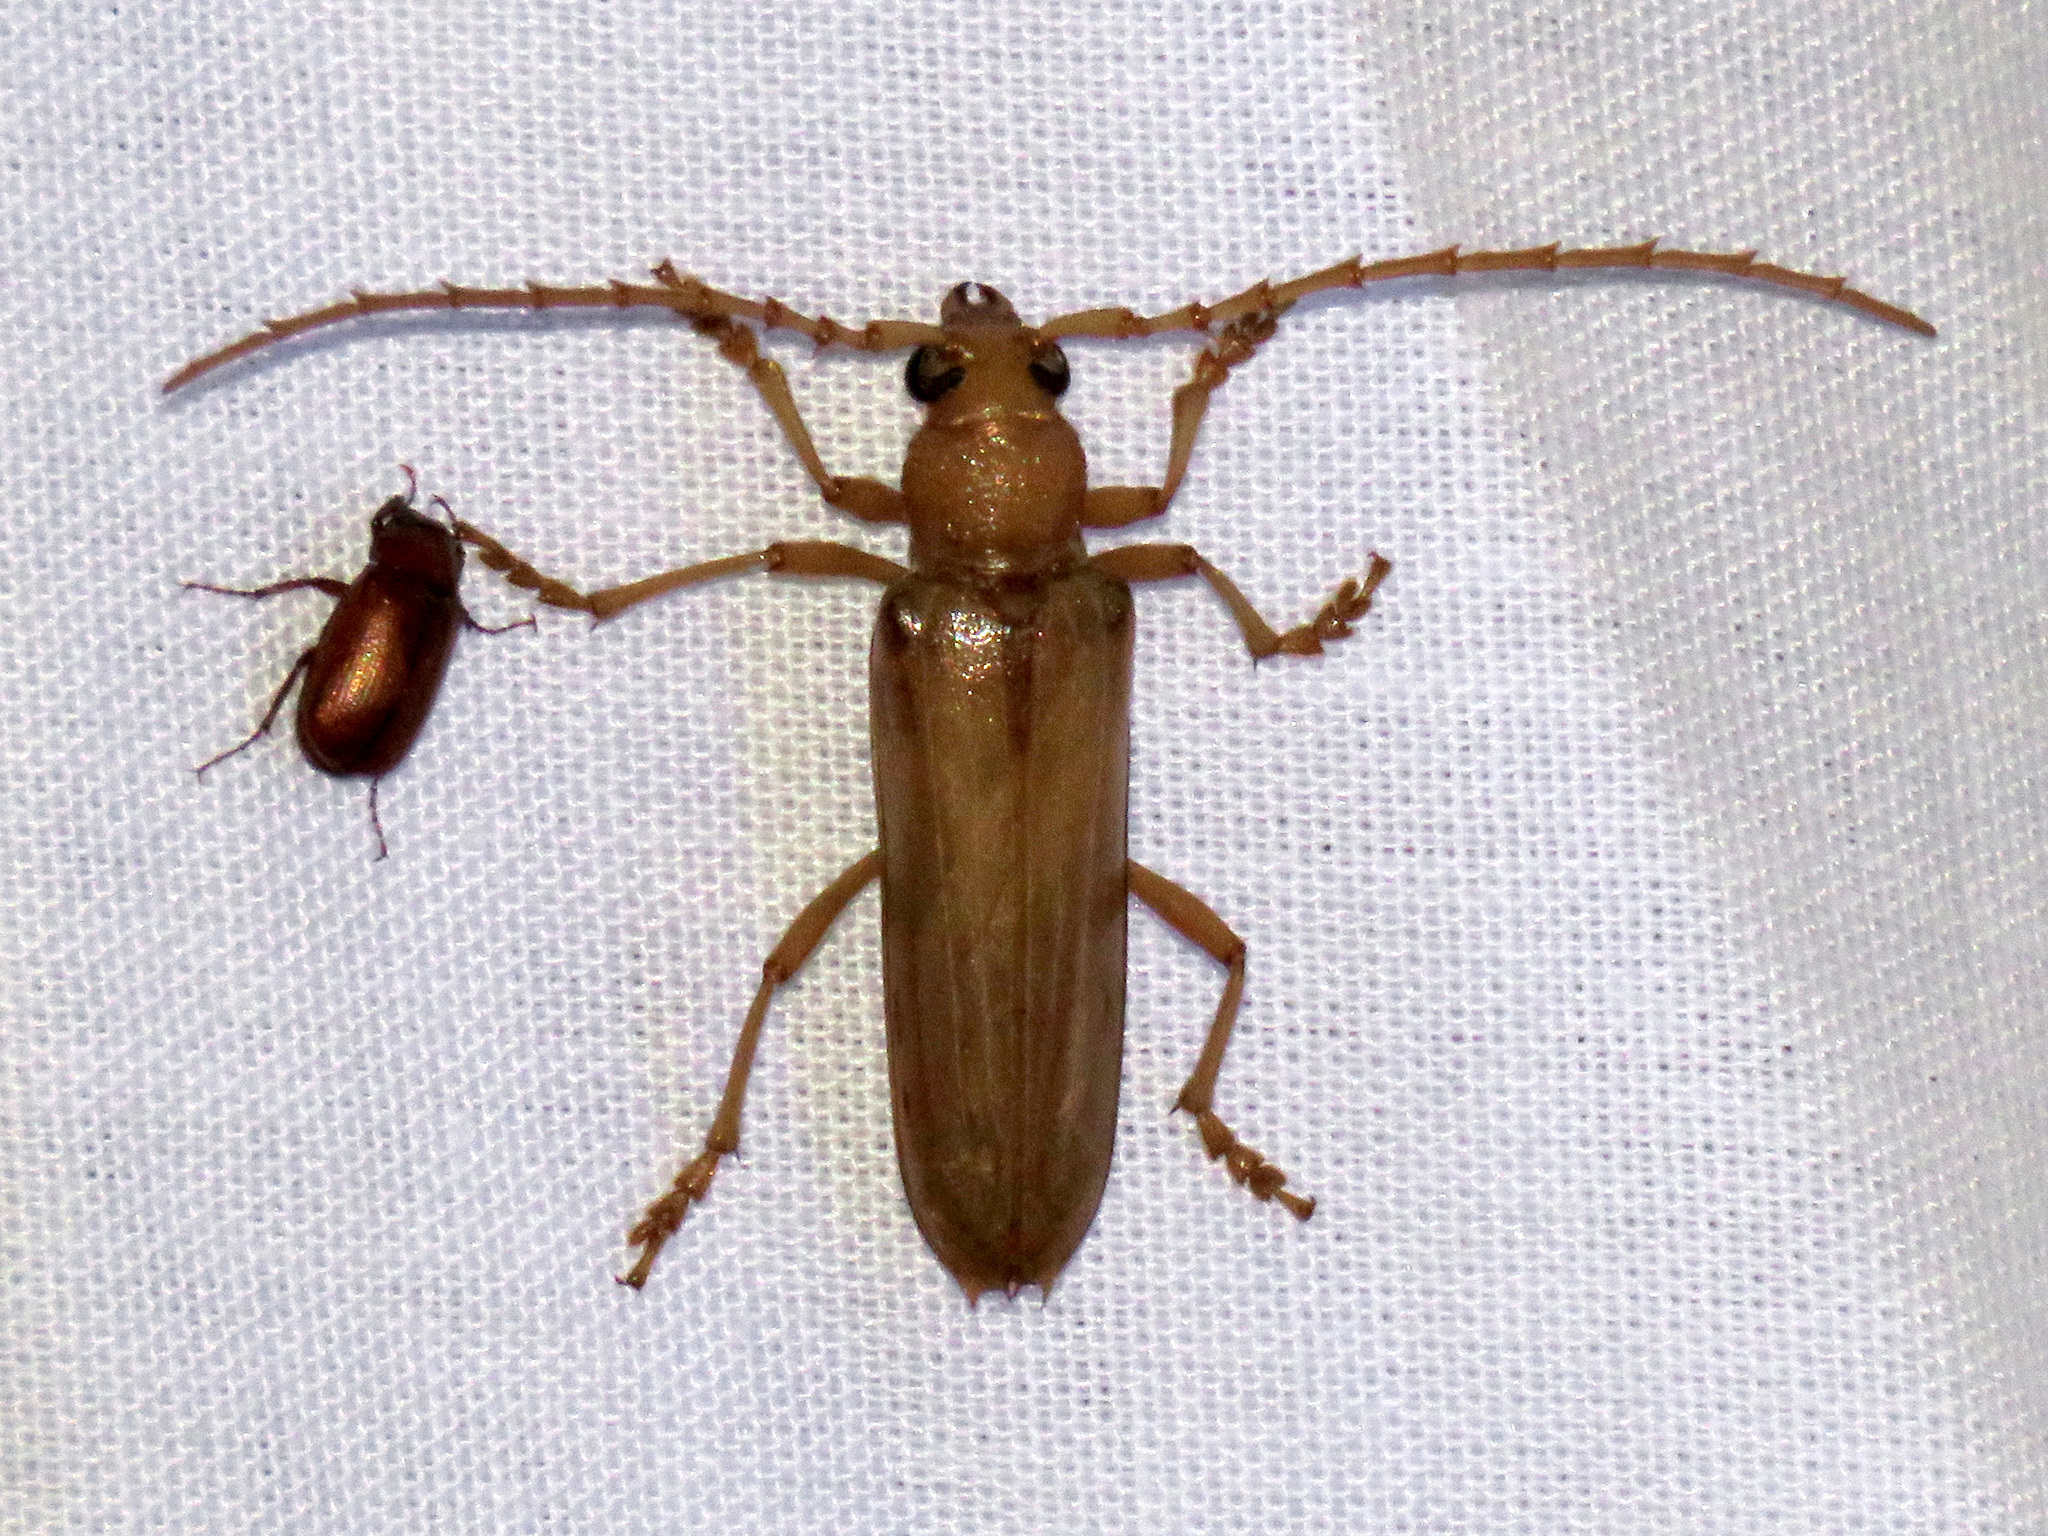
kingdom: Animalia
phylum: Arthropoda
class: Insecta
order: Coleoptera
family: Cerambycidae
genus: Atylostagma
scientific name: Atylostagma polita
